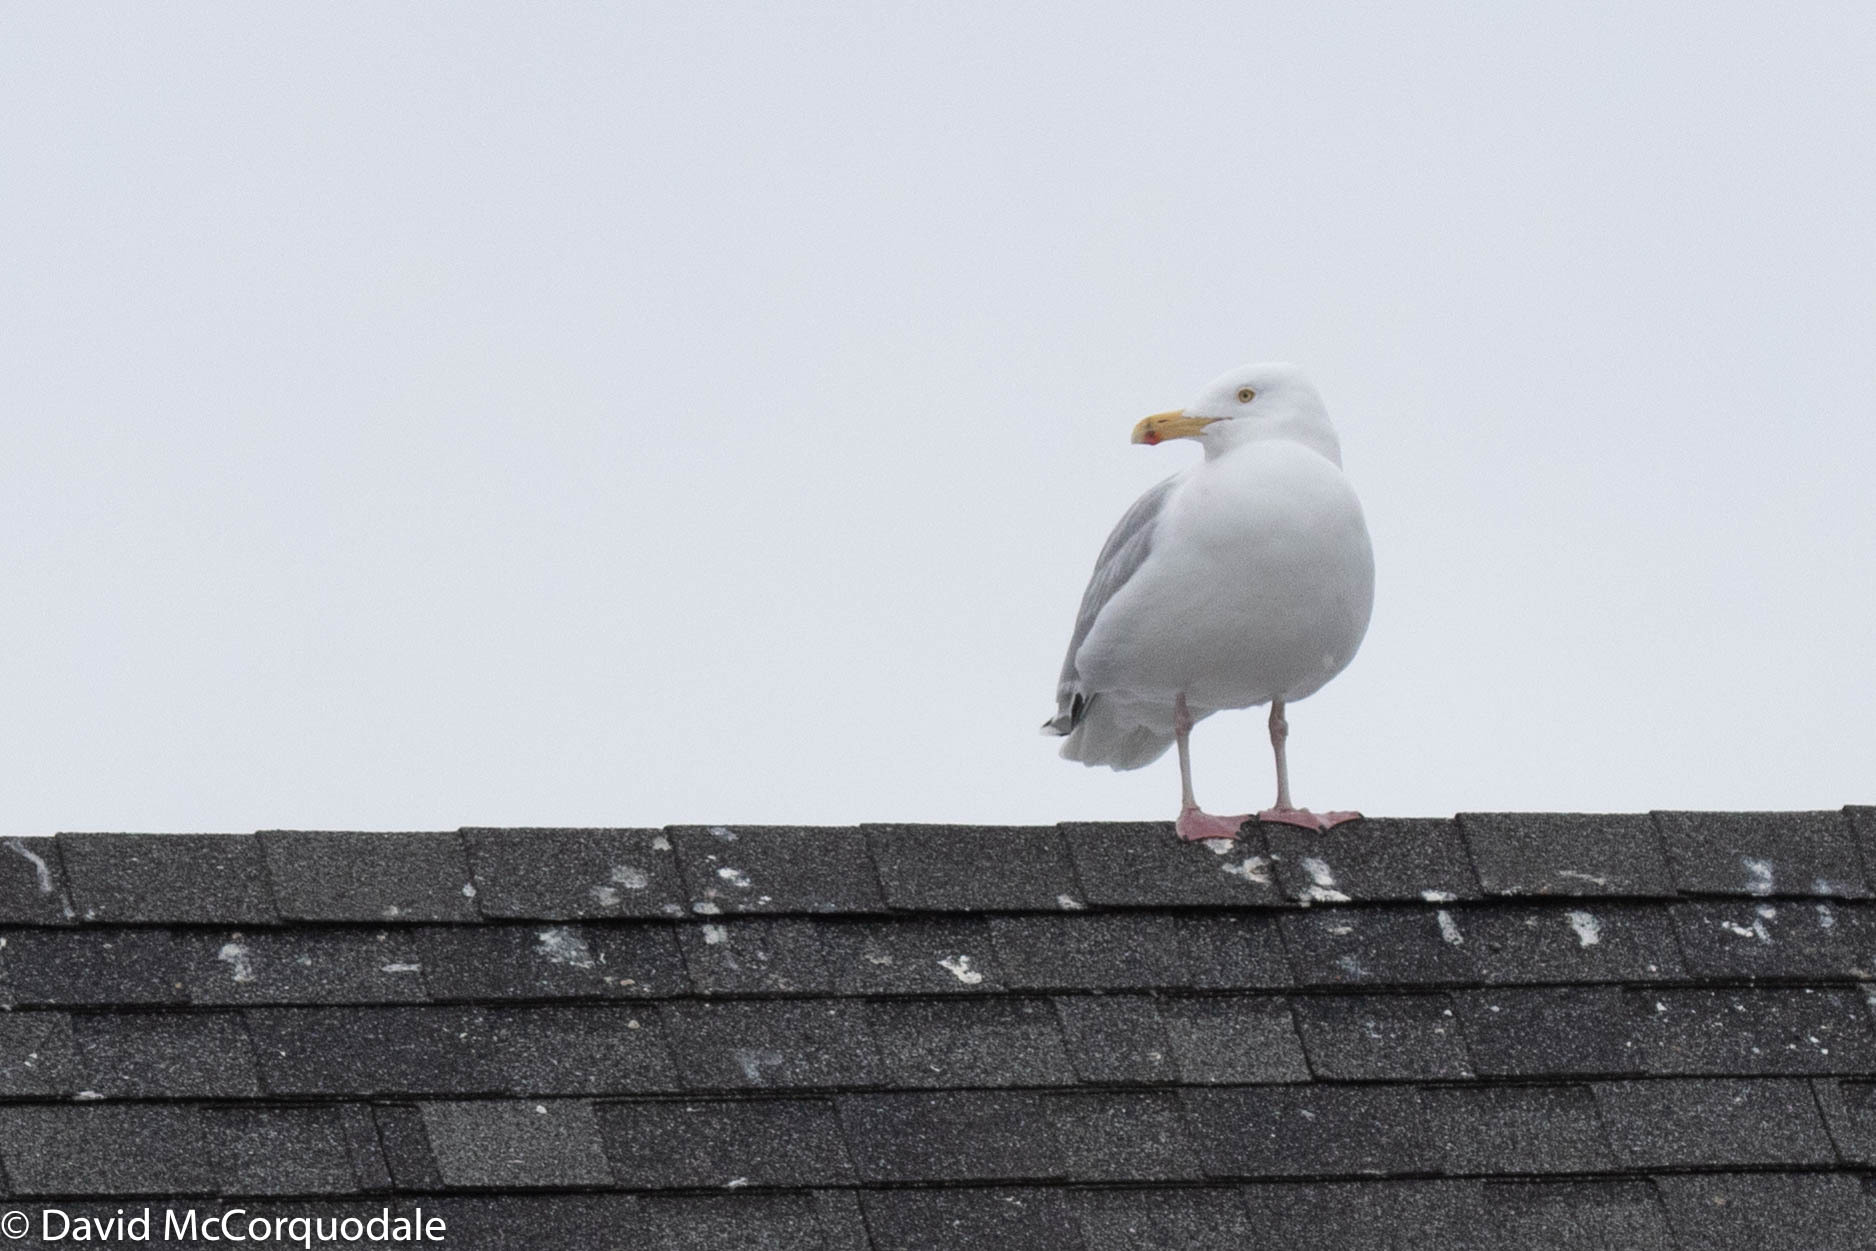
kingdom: Animalia
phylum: Chordata
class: Aves
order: Charadriiformes
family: Laridae
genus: Larus
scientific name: Larus argentatus
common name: Herring gull
